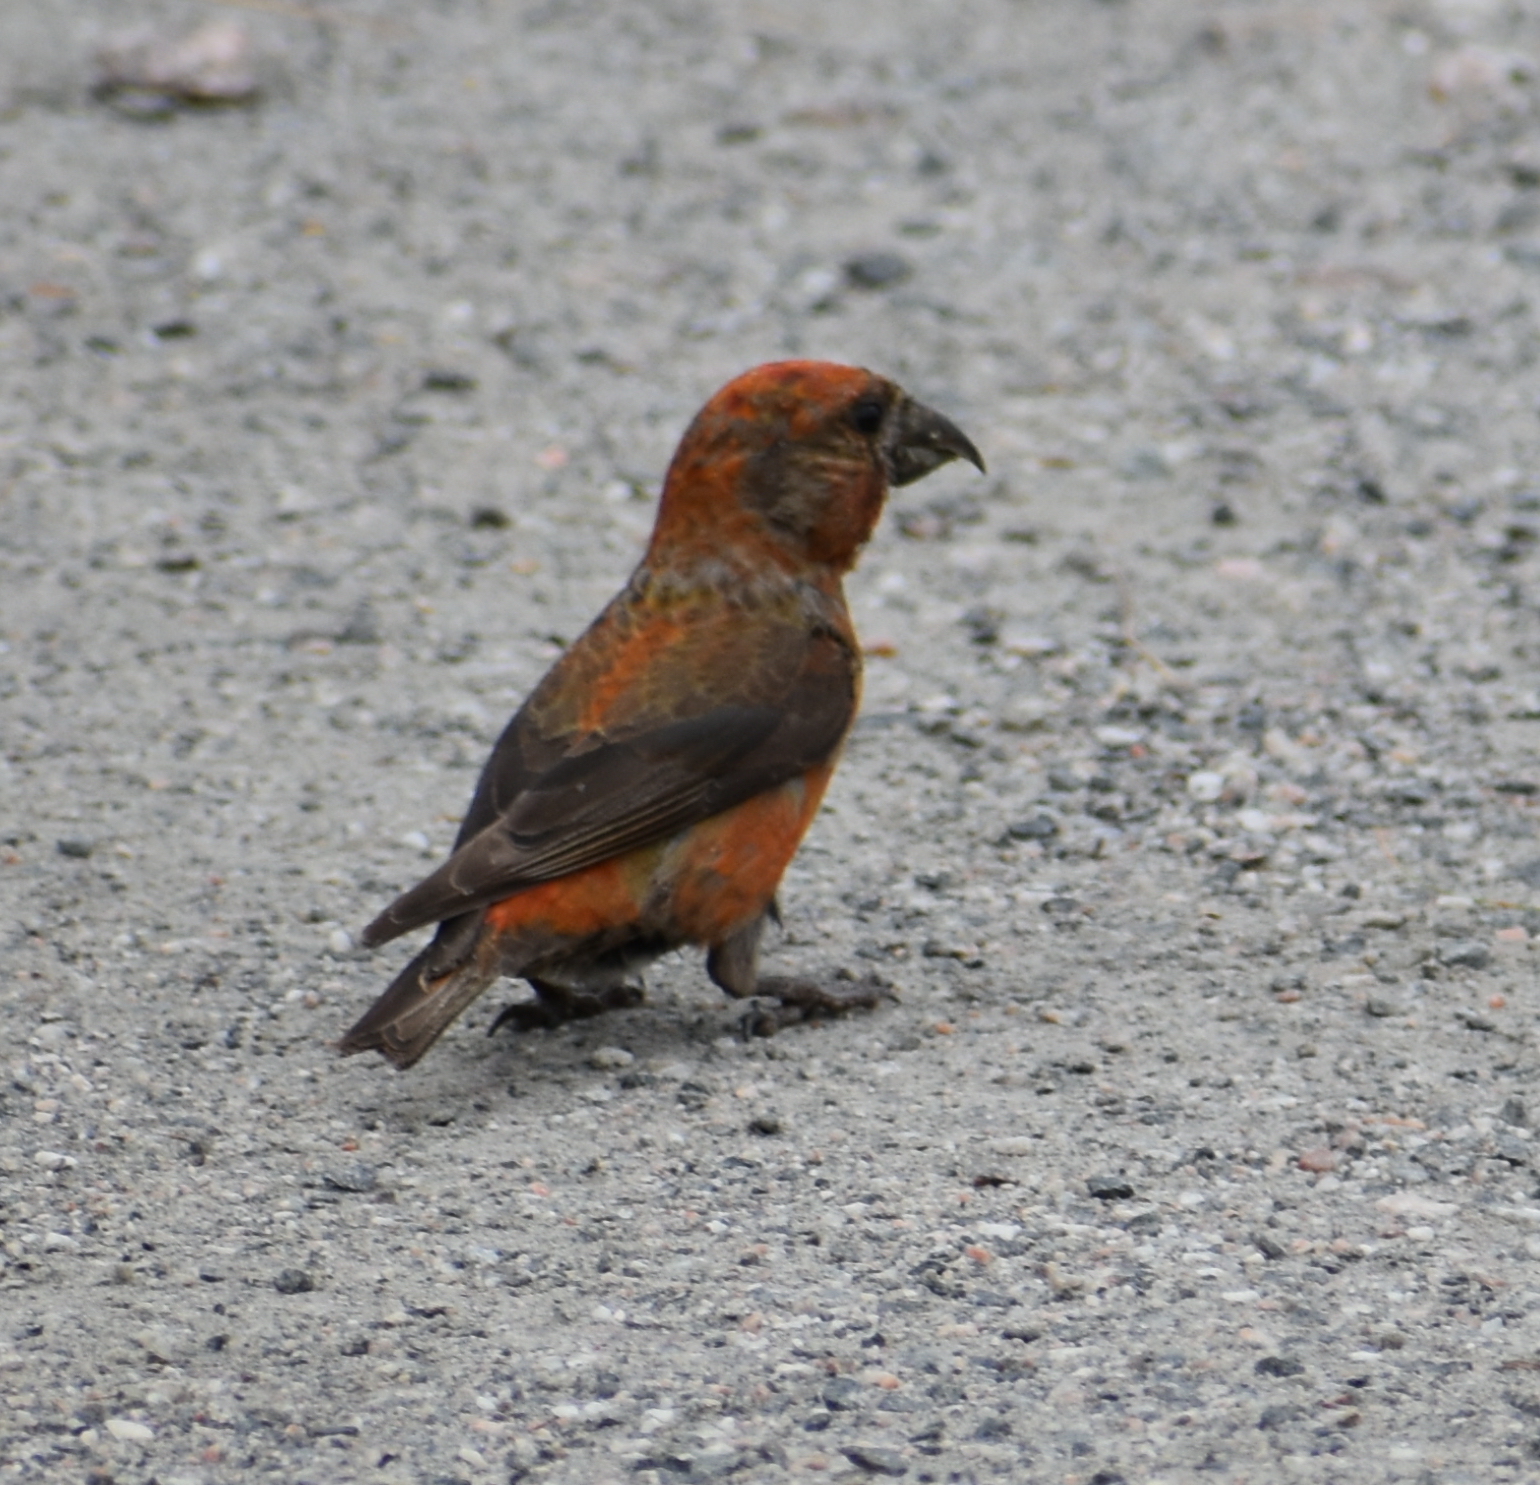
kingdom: Animalia
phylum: Chordata
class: Aves
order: Passeriformes
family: Fringillidae
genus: Loxia
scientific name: Loxia curvirostra
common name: Red crossbill
